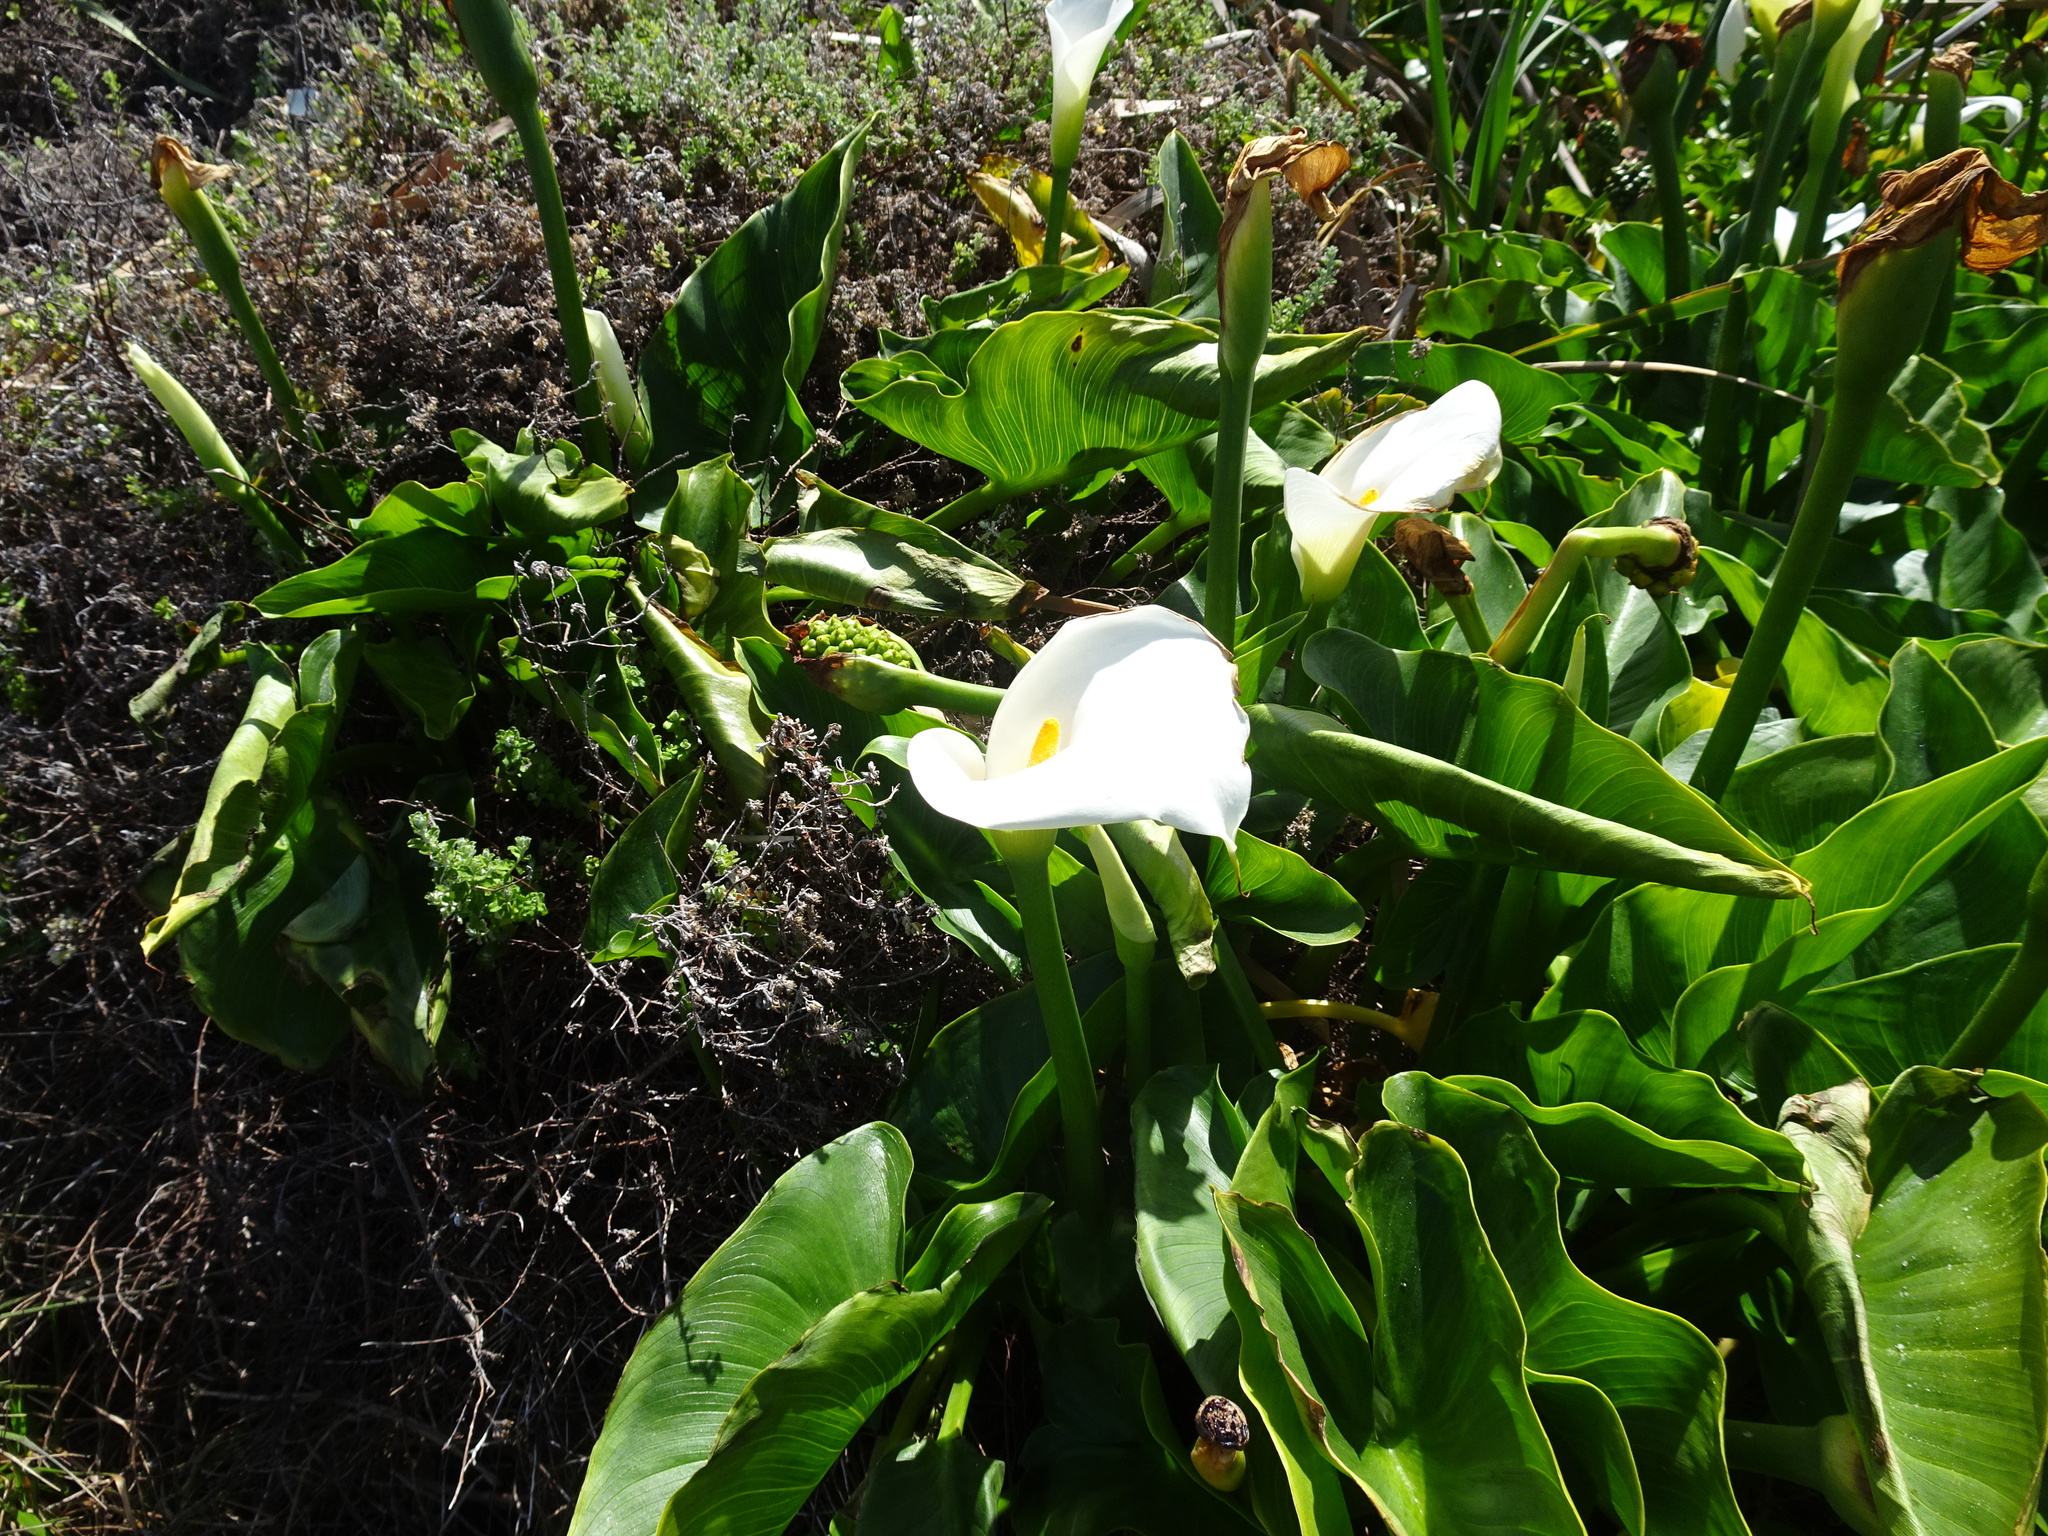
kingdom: Plantae
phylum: Tracheophyta
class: Liliopsida
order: Alismatales
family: Araceae
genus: Zantedeschia
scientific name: Zantedeschia aethiopica
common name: Altar-lily
